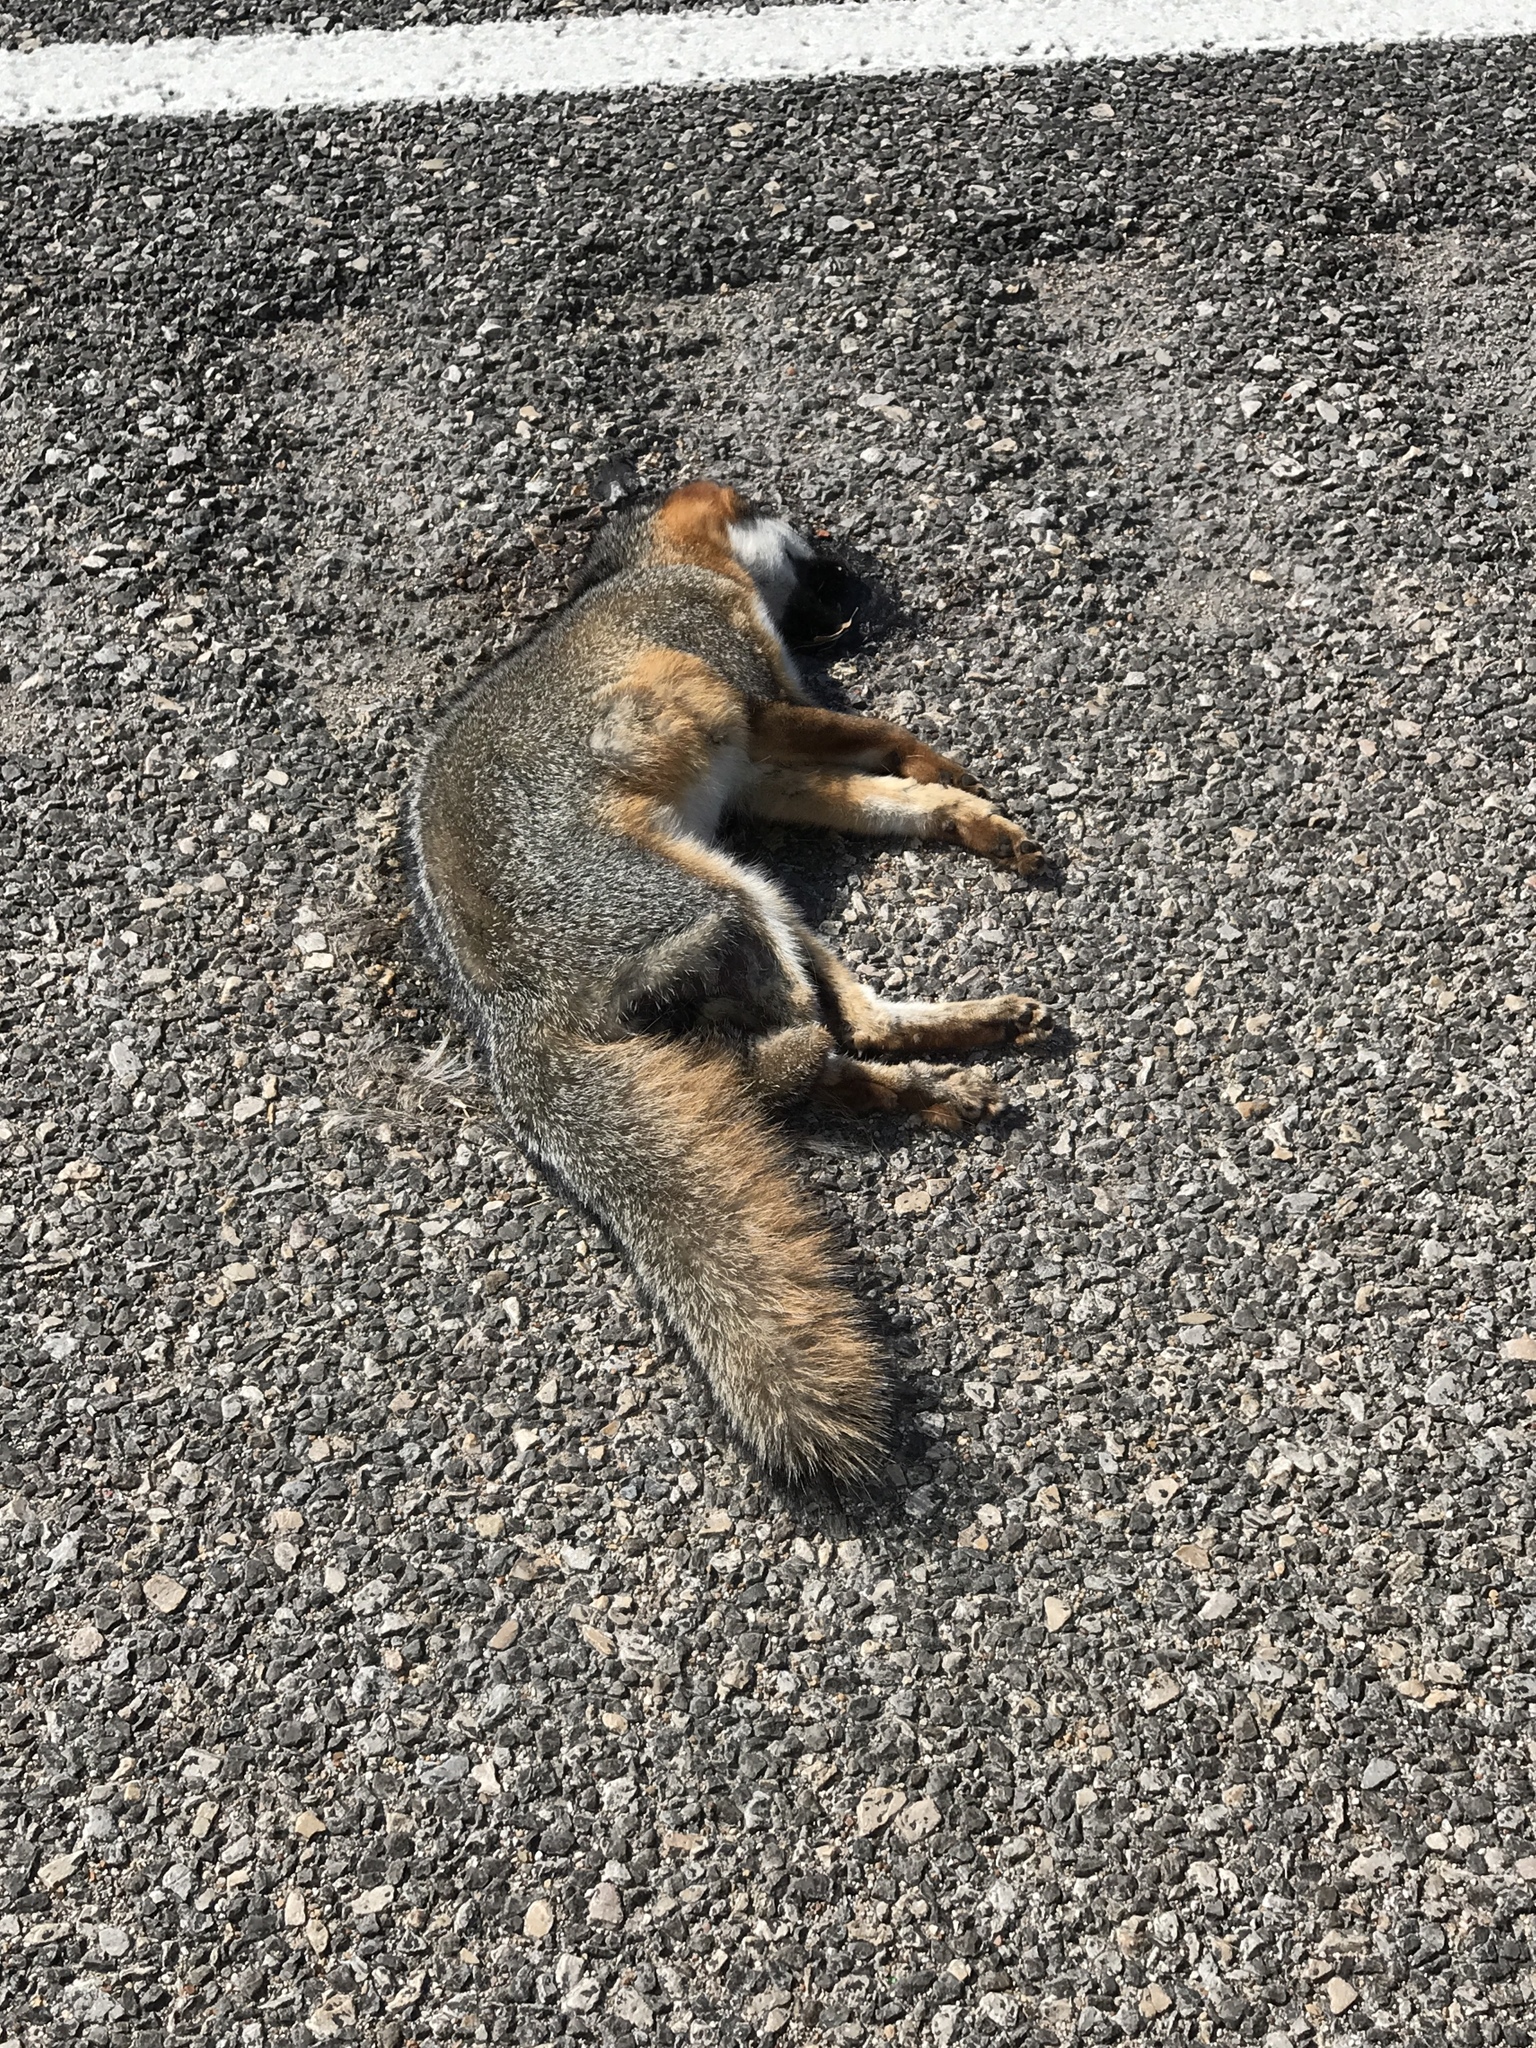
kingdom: Animalia
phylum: Chordata
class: Mammalia
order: Carnivora
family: Canidae
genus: Urocyon
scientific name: Urocyon cinereoargenteus
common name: Gray fox
